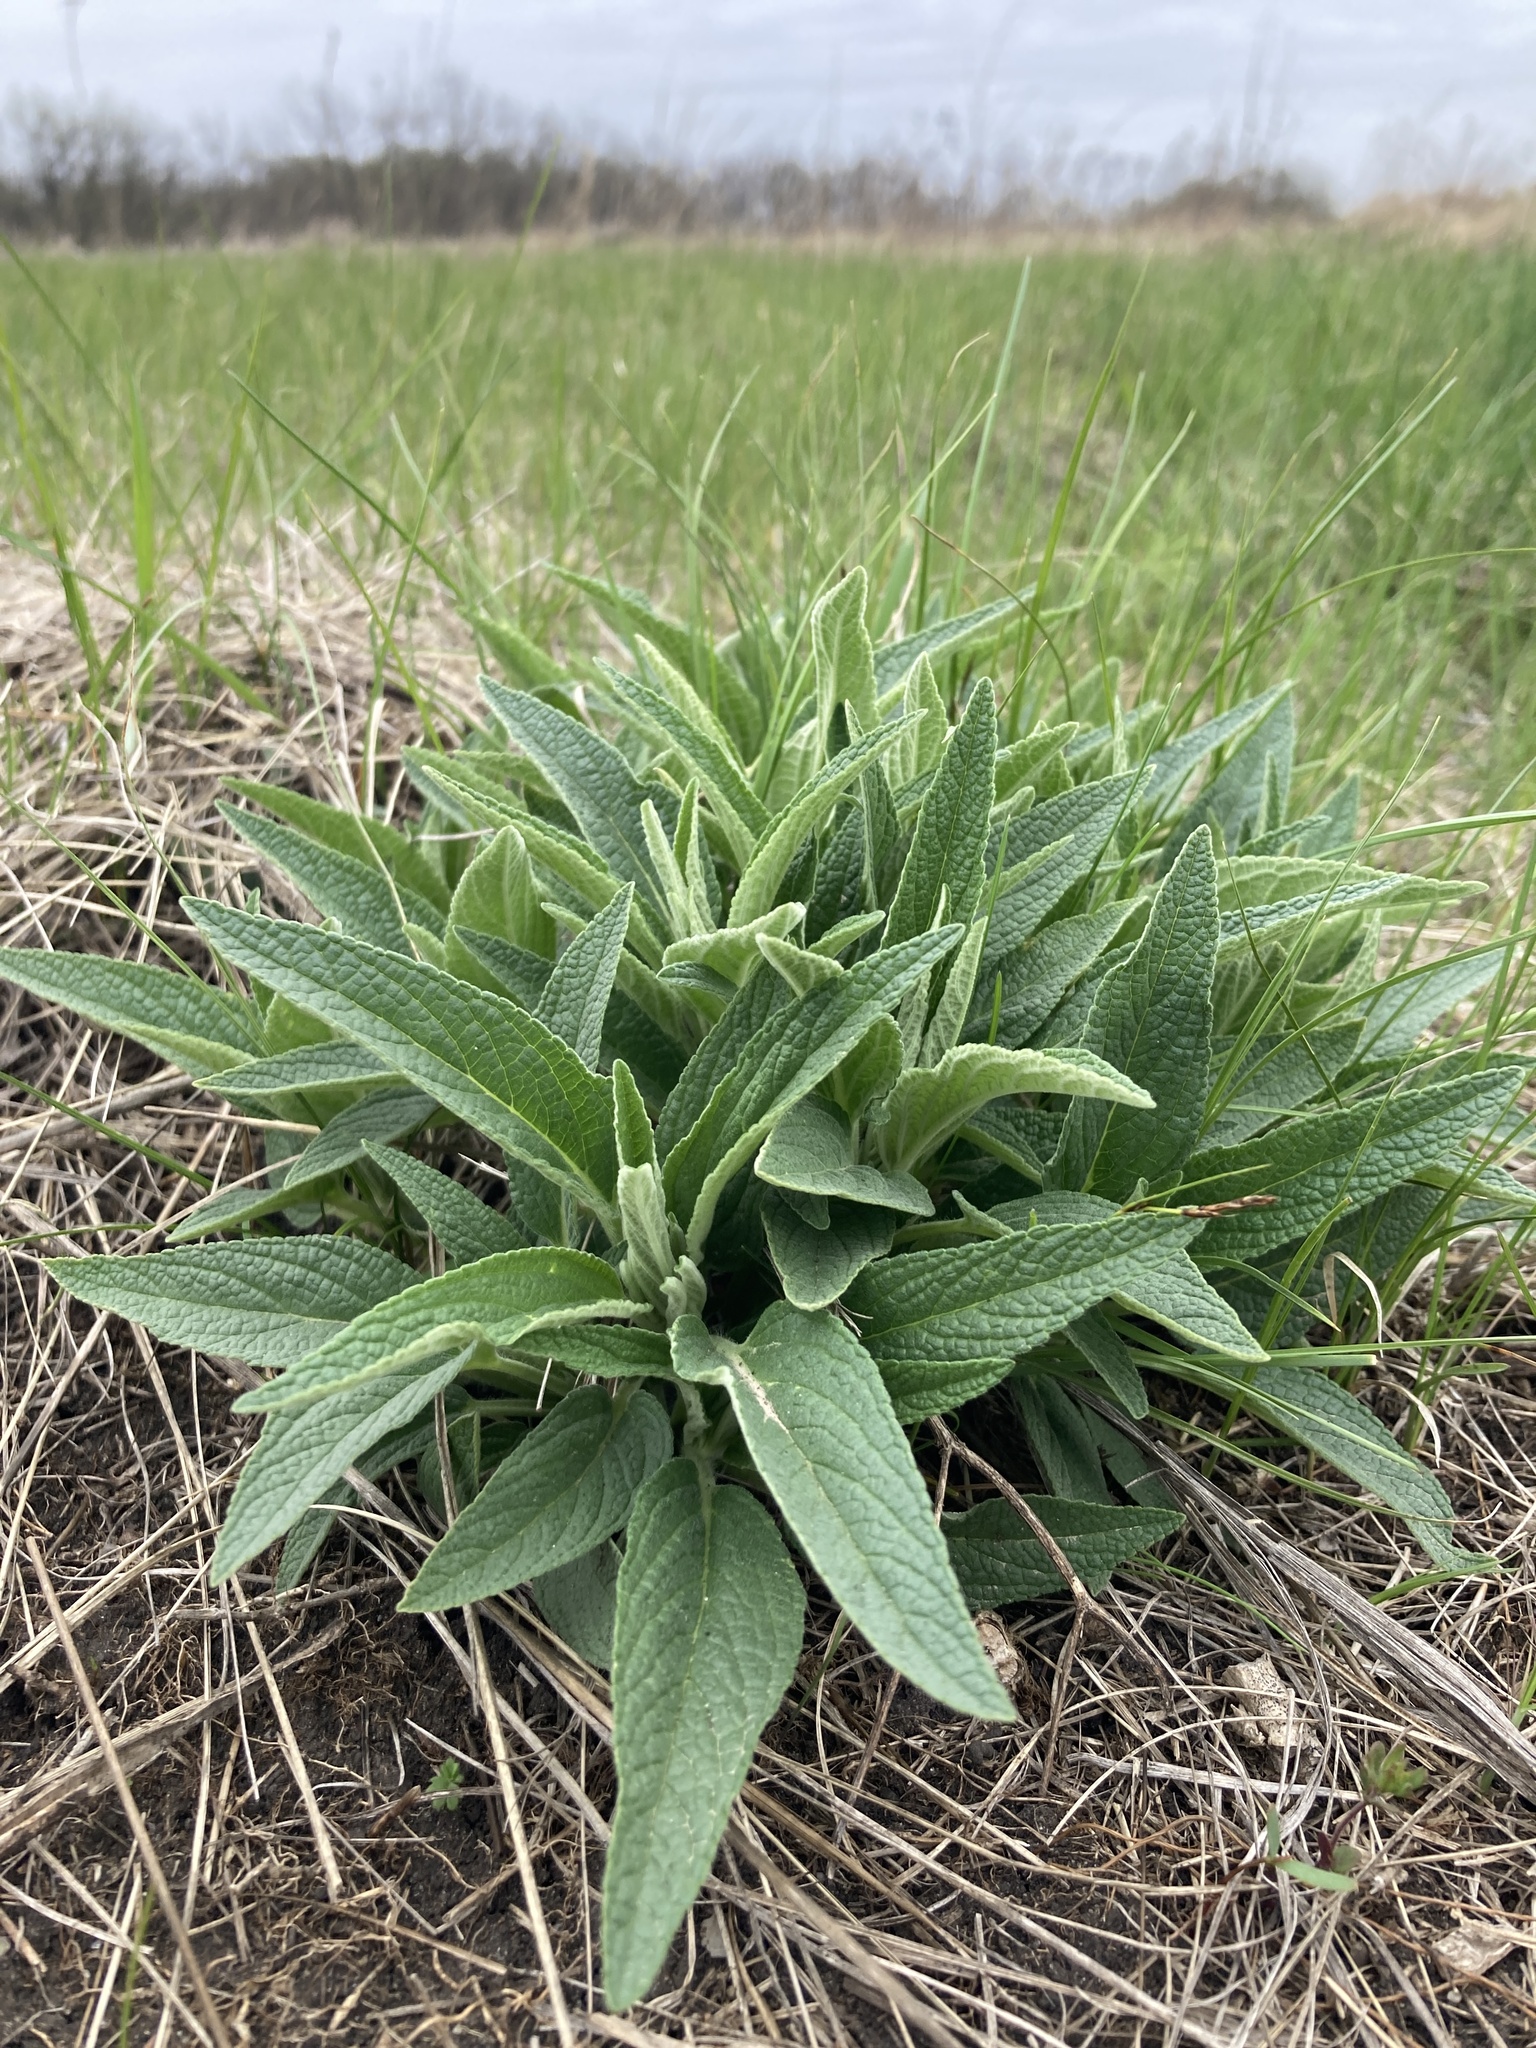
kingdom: Plantae
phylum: Tracheophyta
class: Magnoliopsida
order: Lamiales
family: Lamiaceae
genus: Phlomis
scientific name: Phlomis herba-venti
